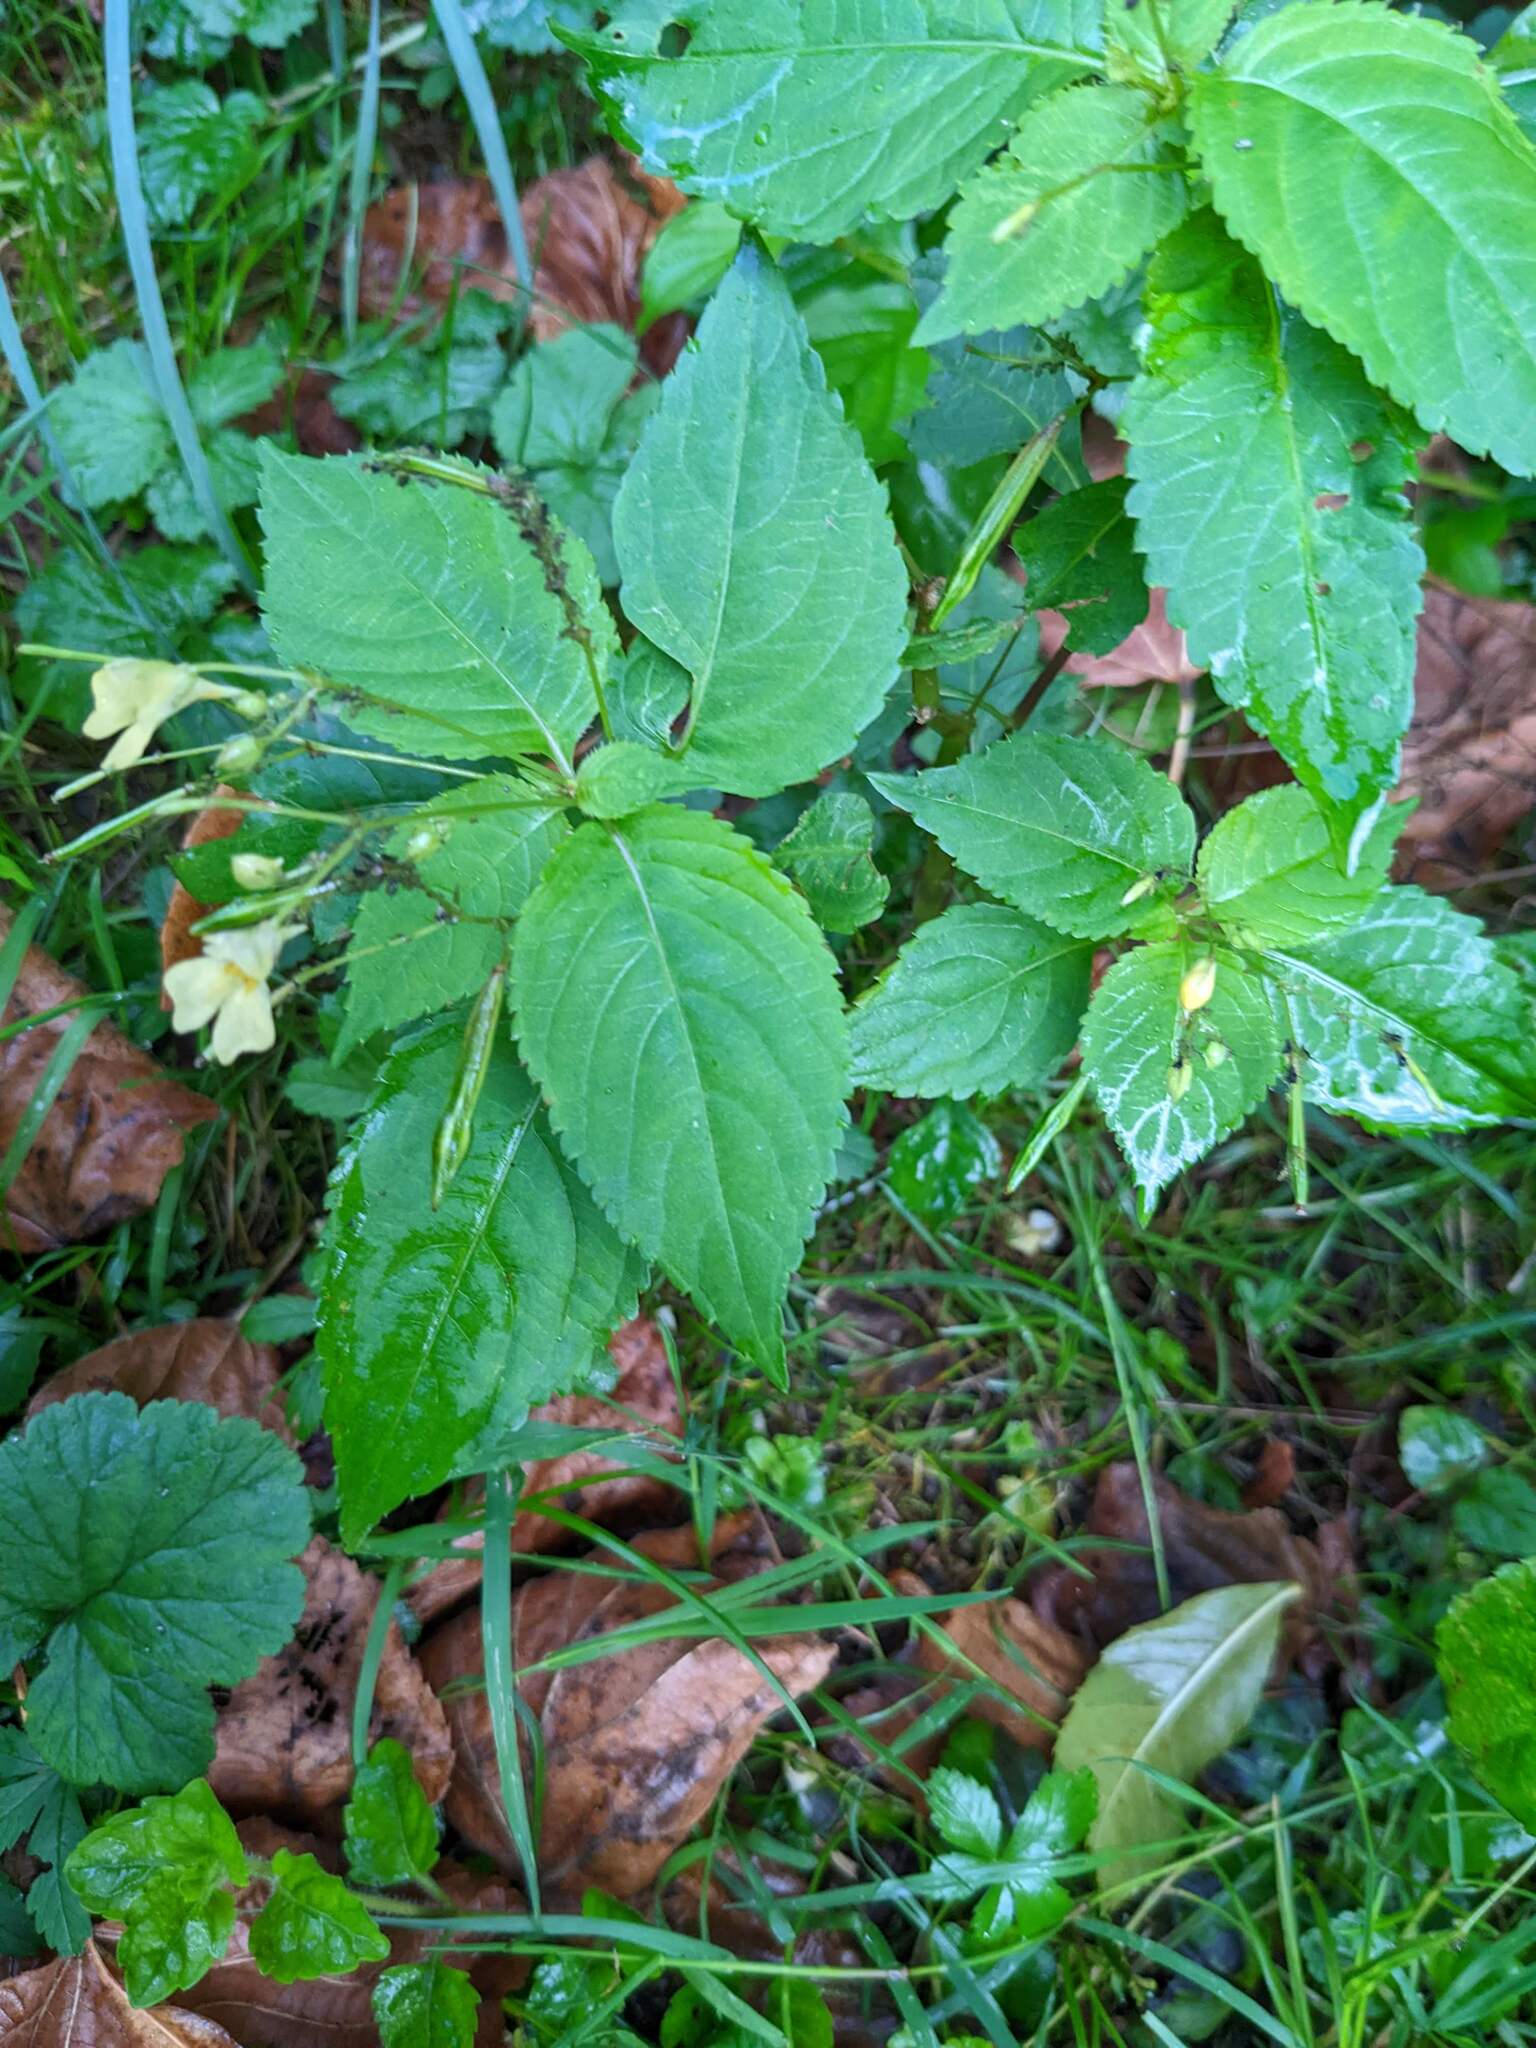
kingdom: Plantae
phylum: Tracheophyta
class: Magnoliopsida
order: Ericales
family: Balsaminaceae
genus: Impatiens
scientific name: Impatiens parviflora
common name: Small balsam
